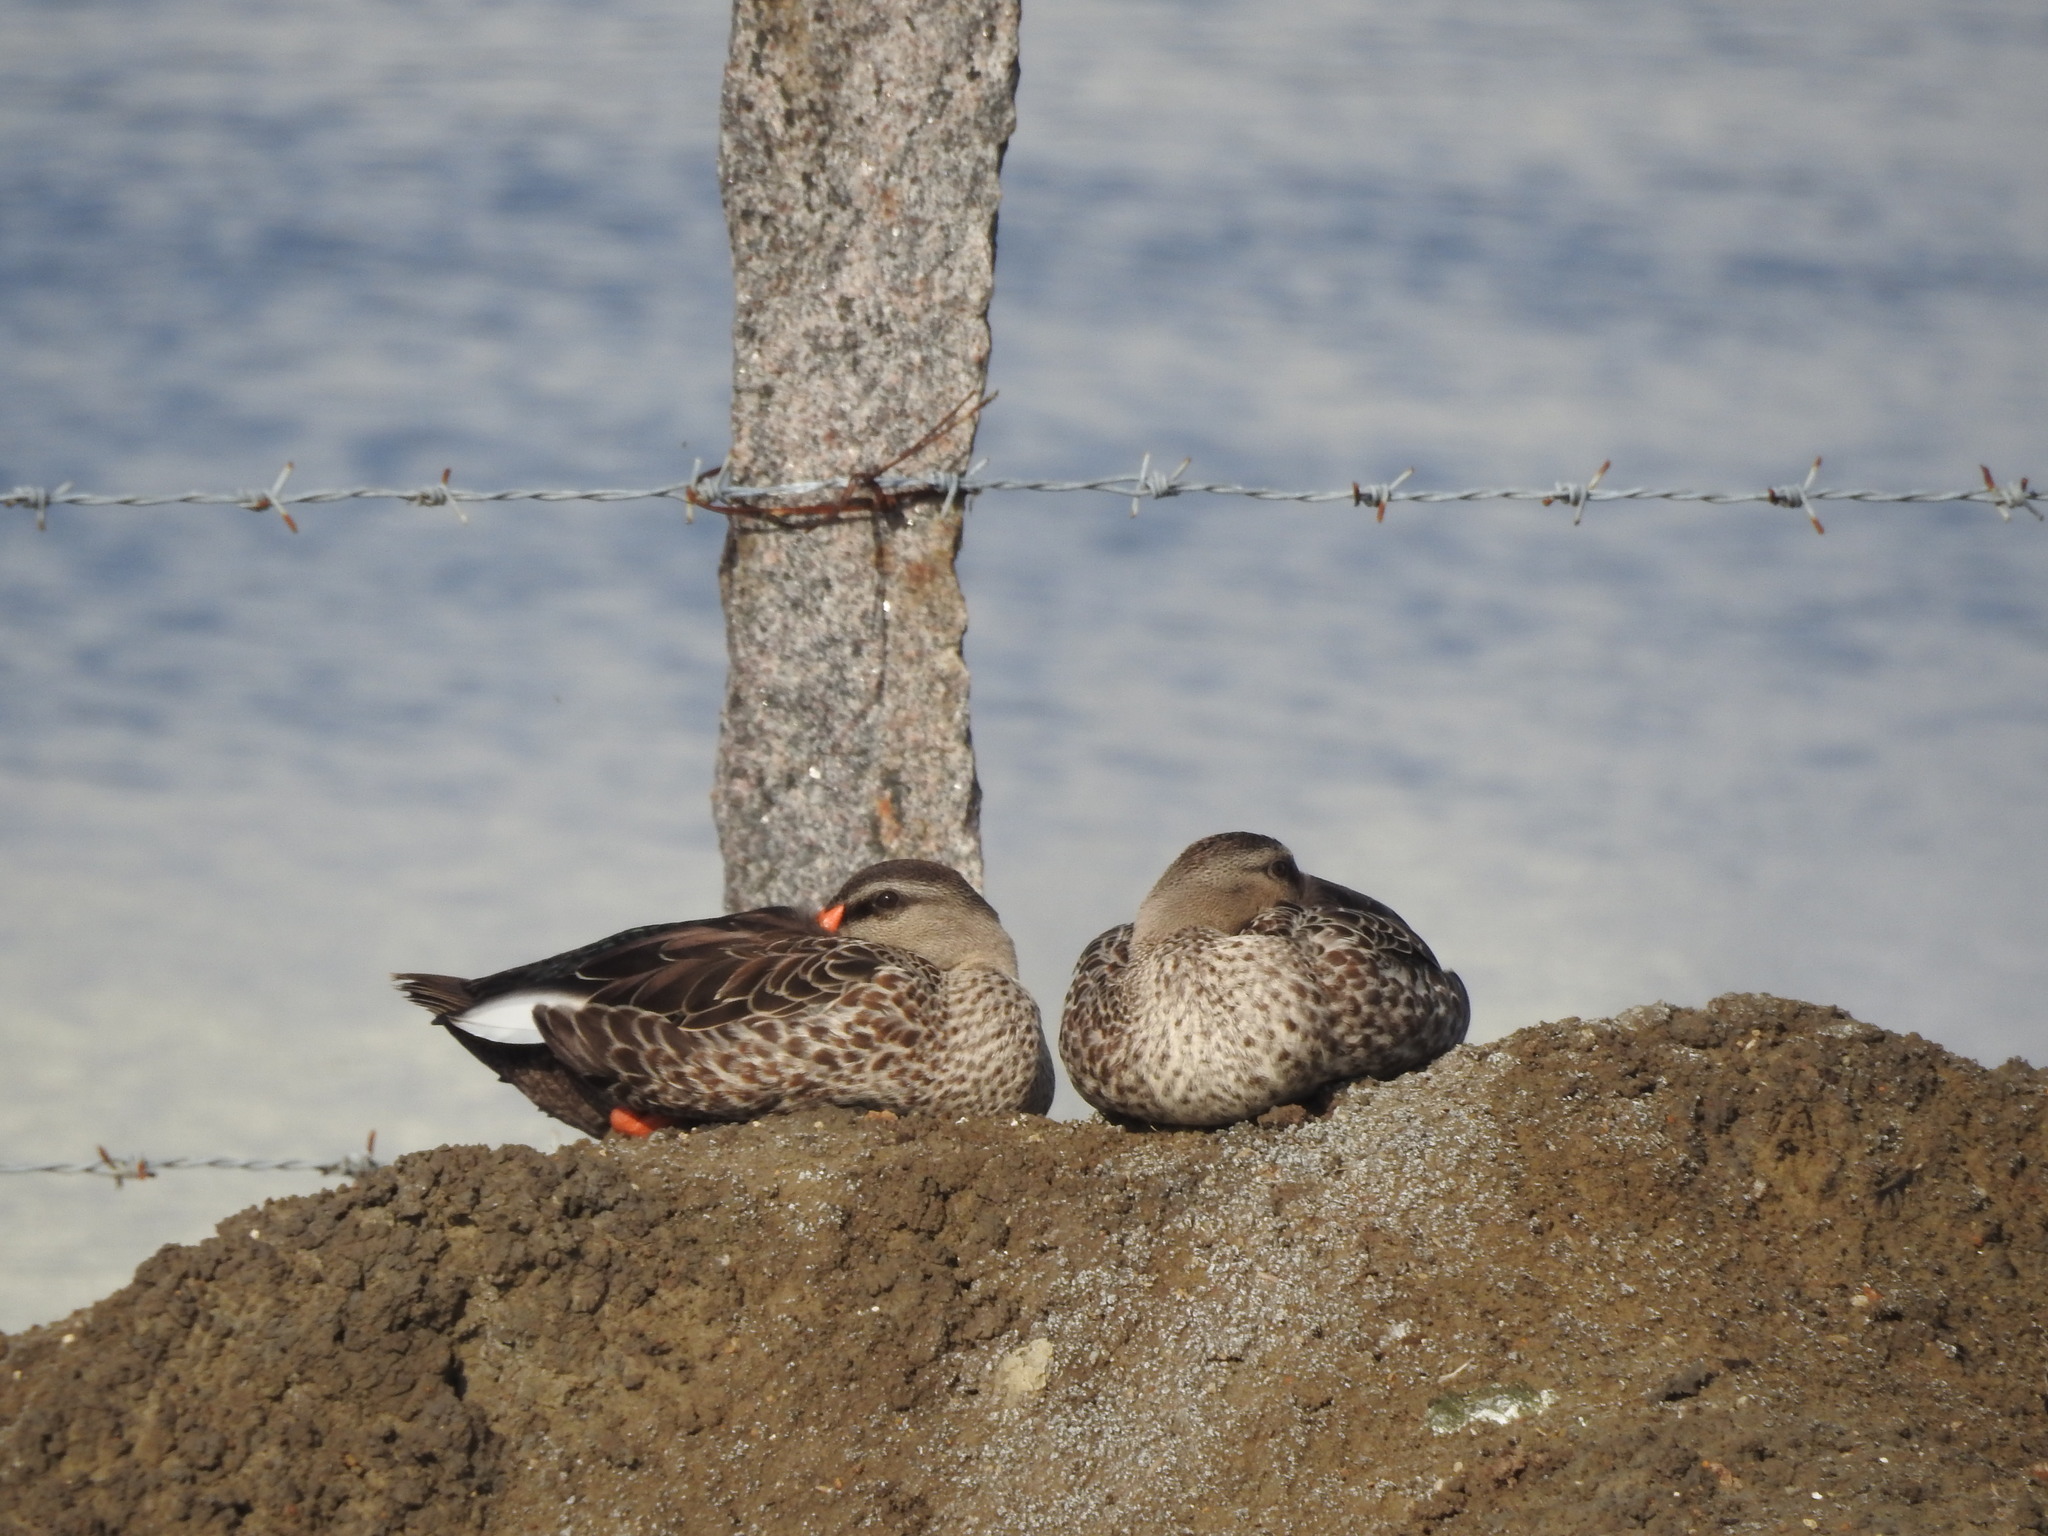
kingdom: Animalia
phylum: Chordata
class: Aves
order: Anseriformes
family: Anatidae
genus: Anas
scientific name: Anas poecilorhyncha
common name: Indian spot-billed duck
